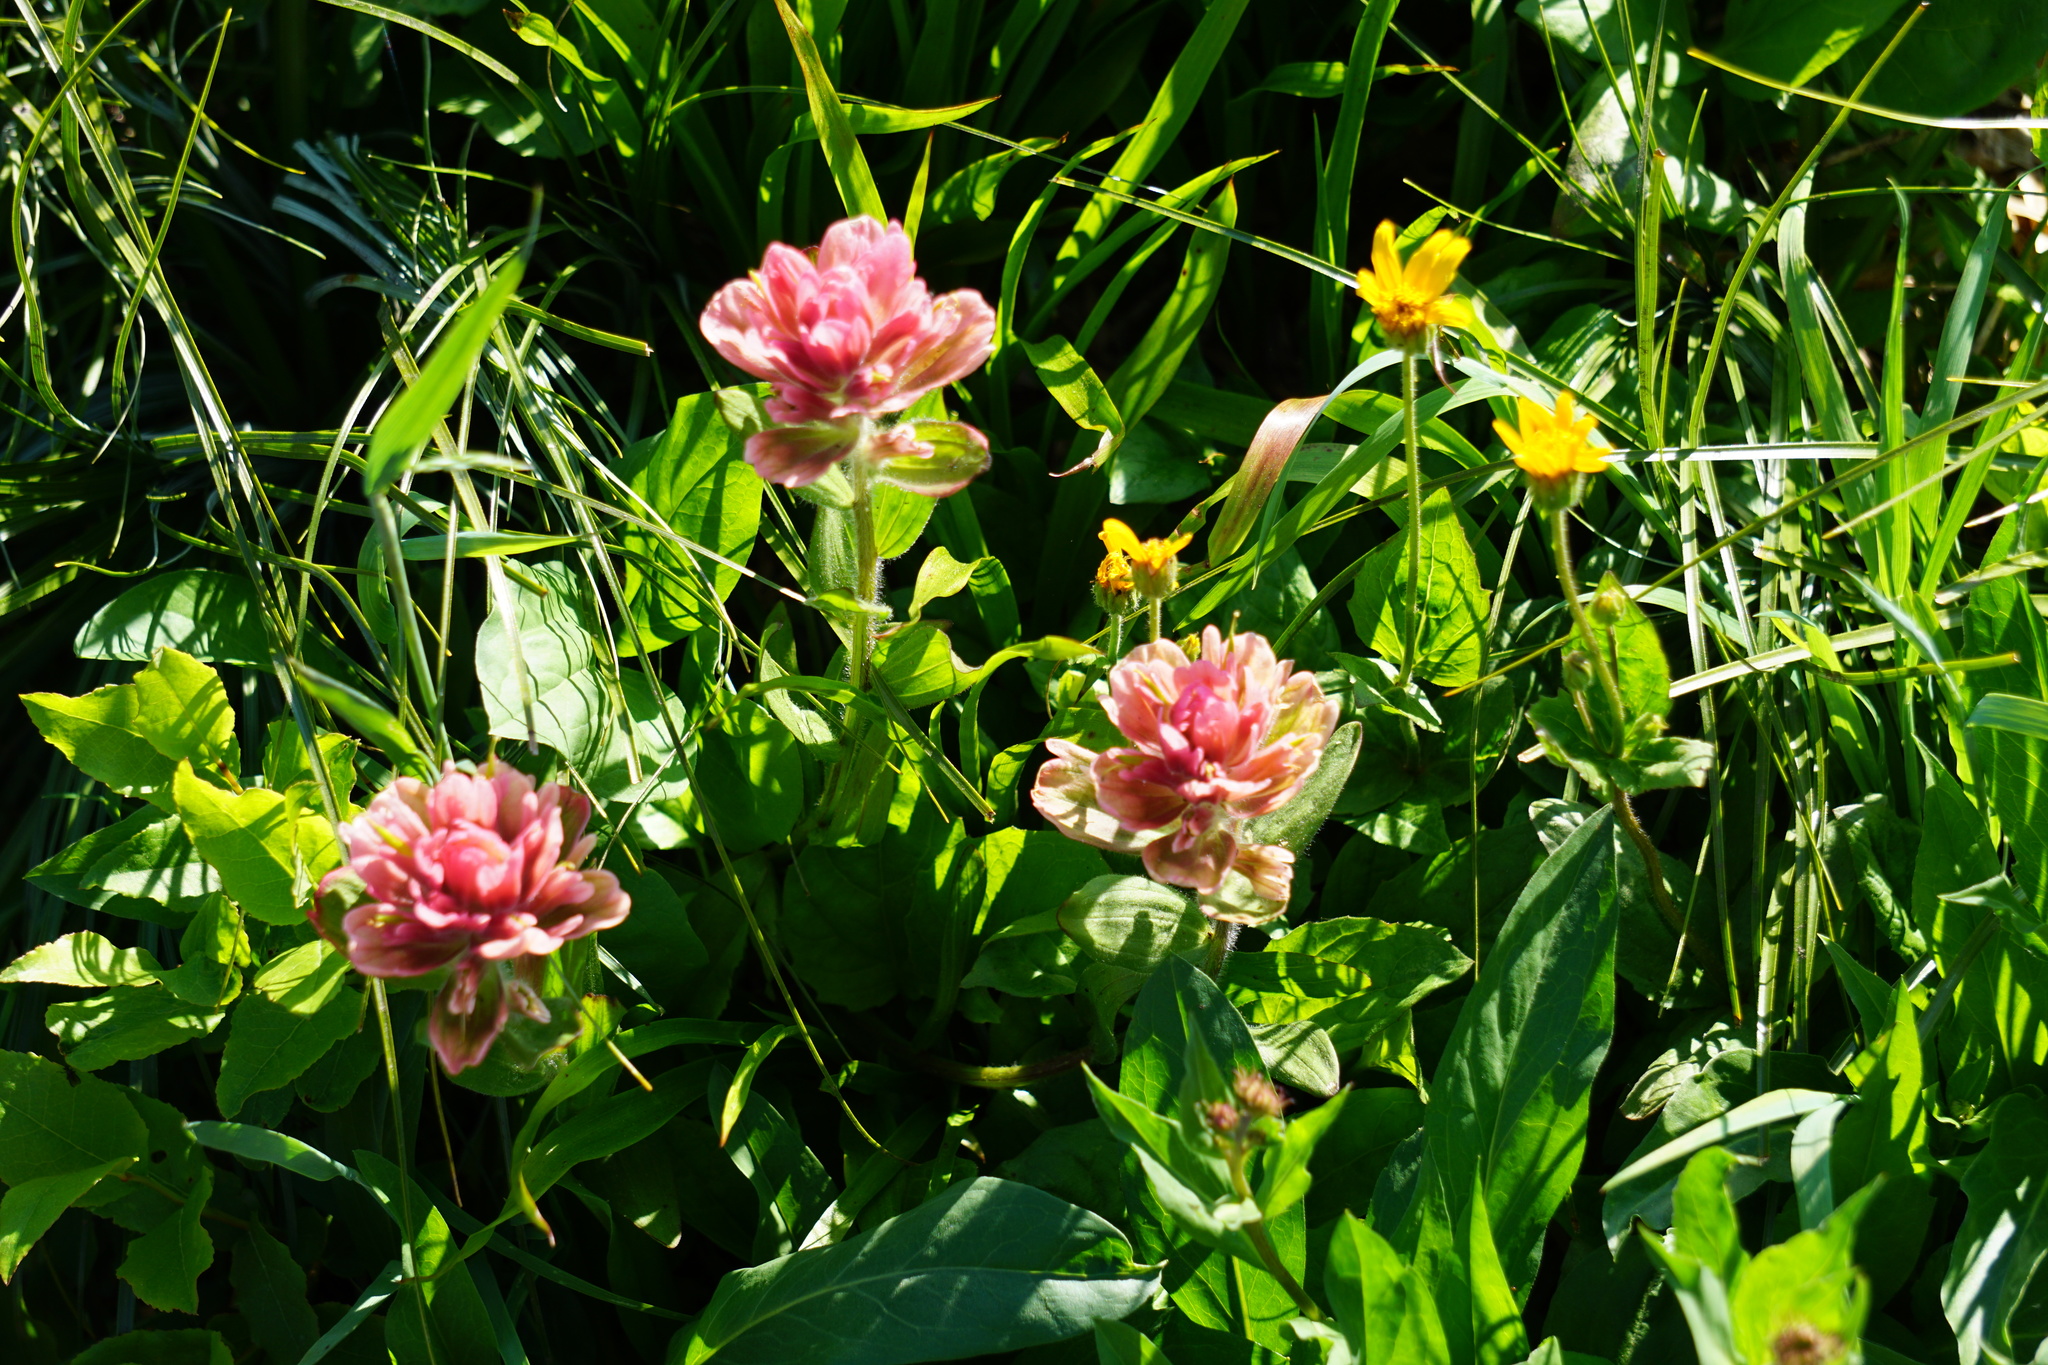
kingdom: Plantae
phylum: Tracheophyta
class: Magnoliopsida
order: Lamiales
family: Orobanchaceae
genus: Castilleja
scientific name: Castilleja rhexifolia
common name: Rocky mountain paintbrush
